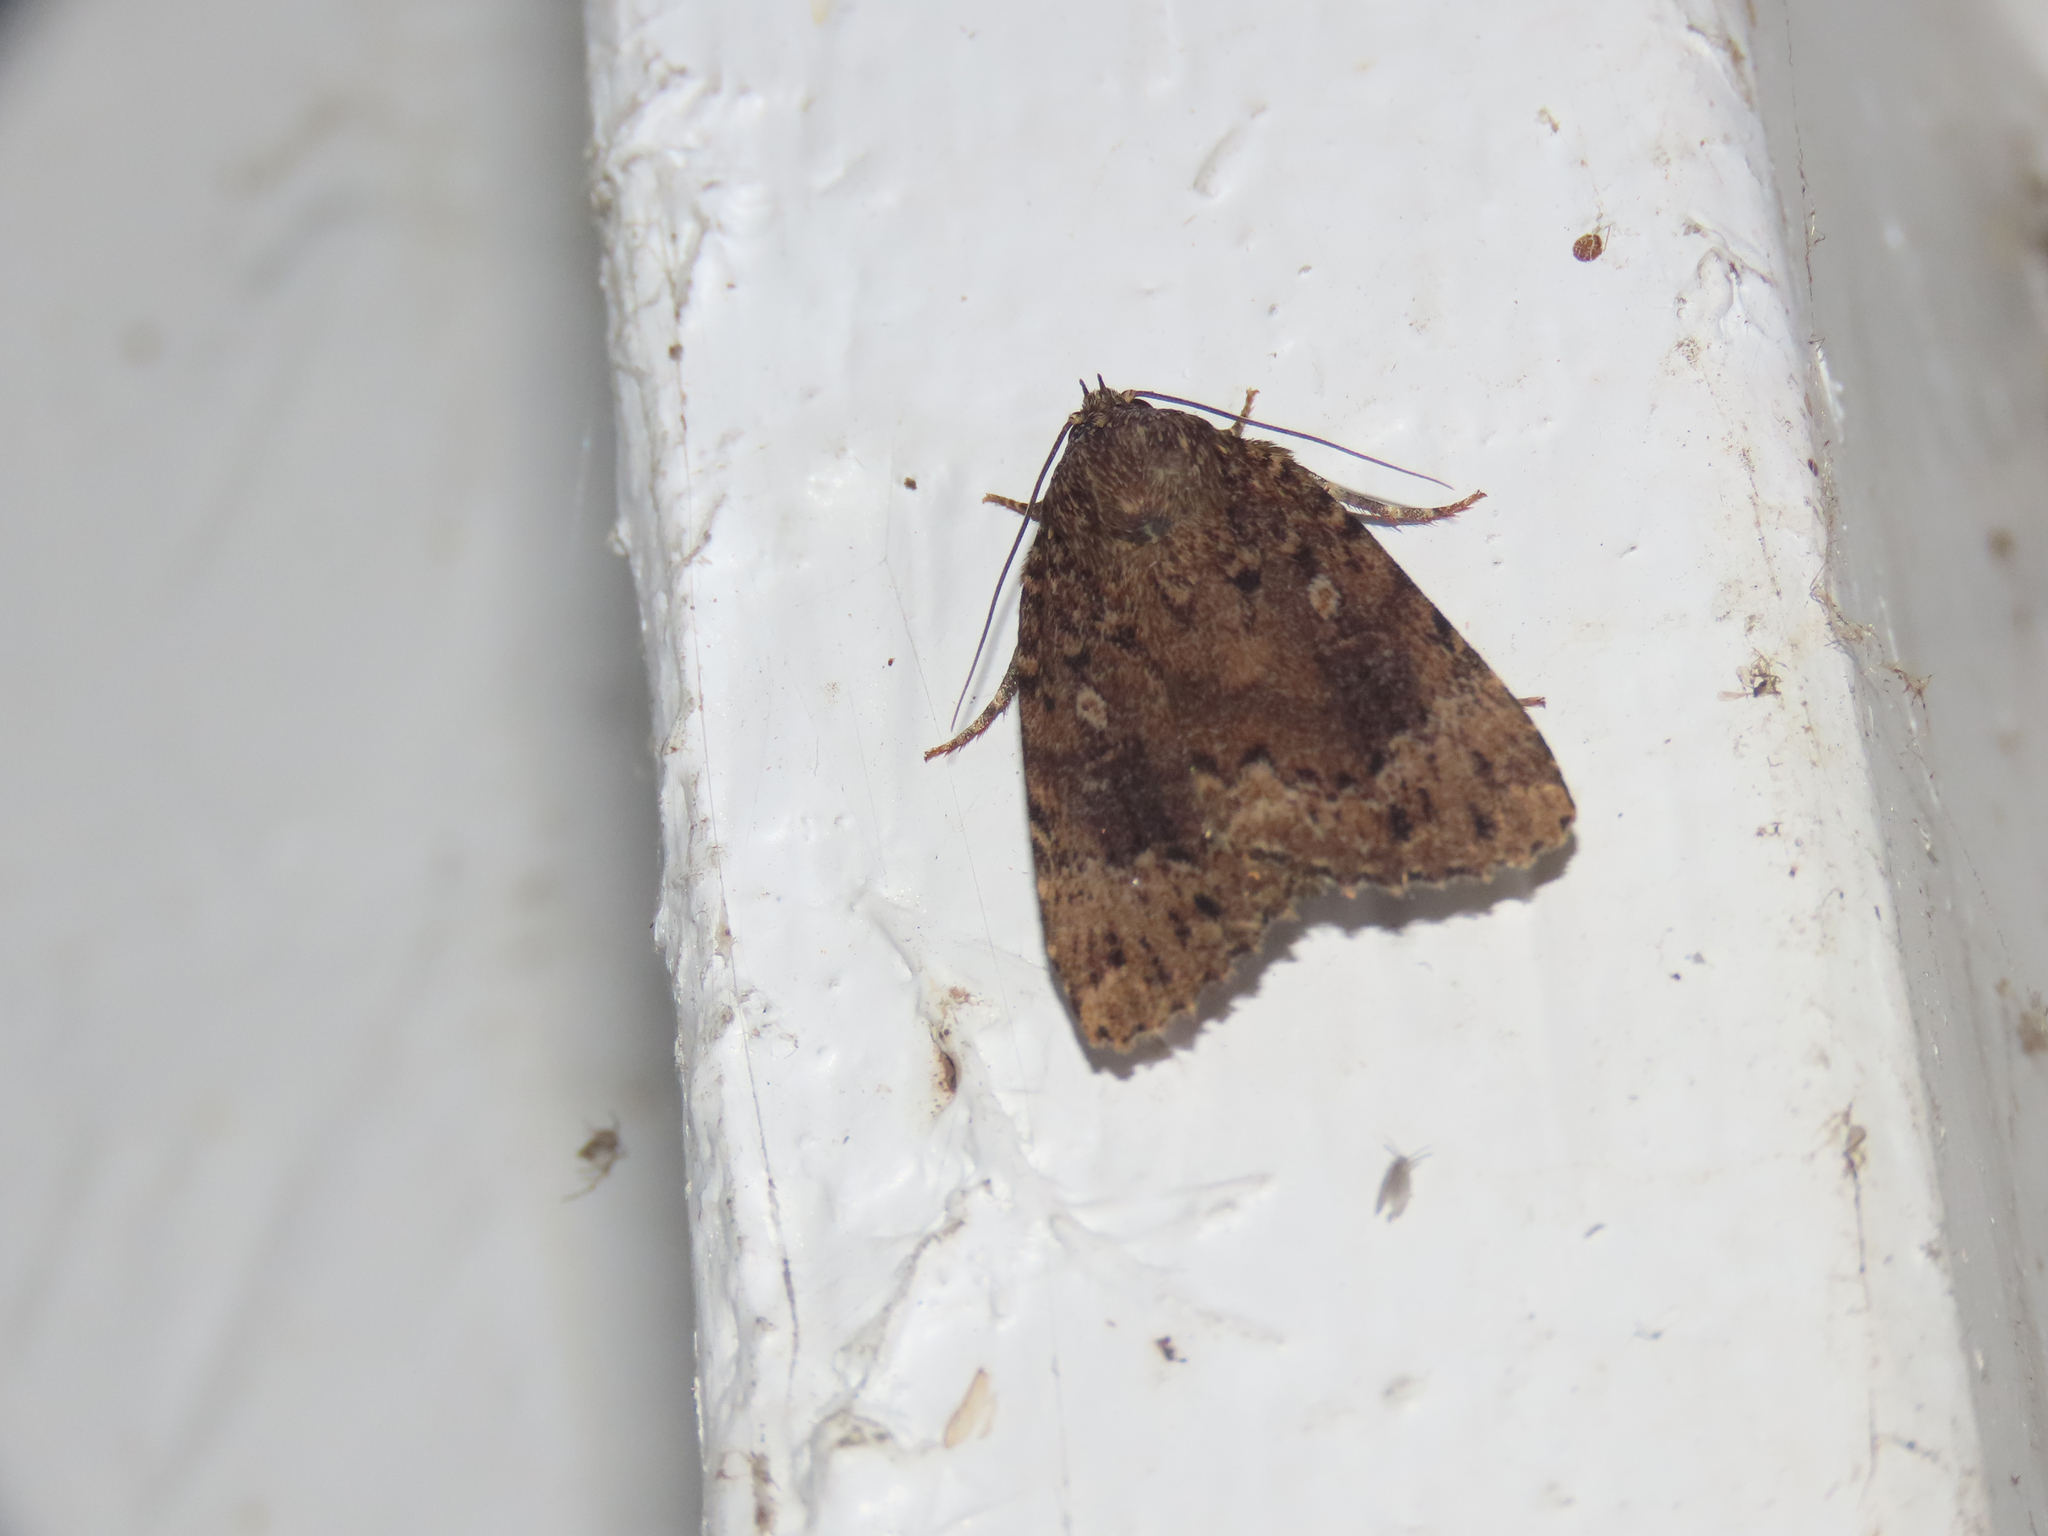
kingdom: Animalia
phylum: Arthropoda
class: Insecta
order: Lepidoptera
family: Noctuidae
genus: Amphipyra
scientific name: Amphipyra pyramidoides
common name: American copper underwing
